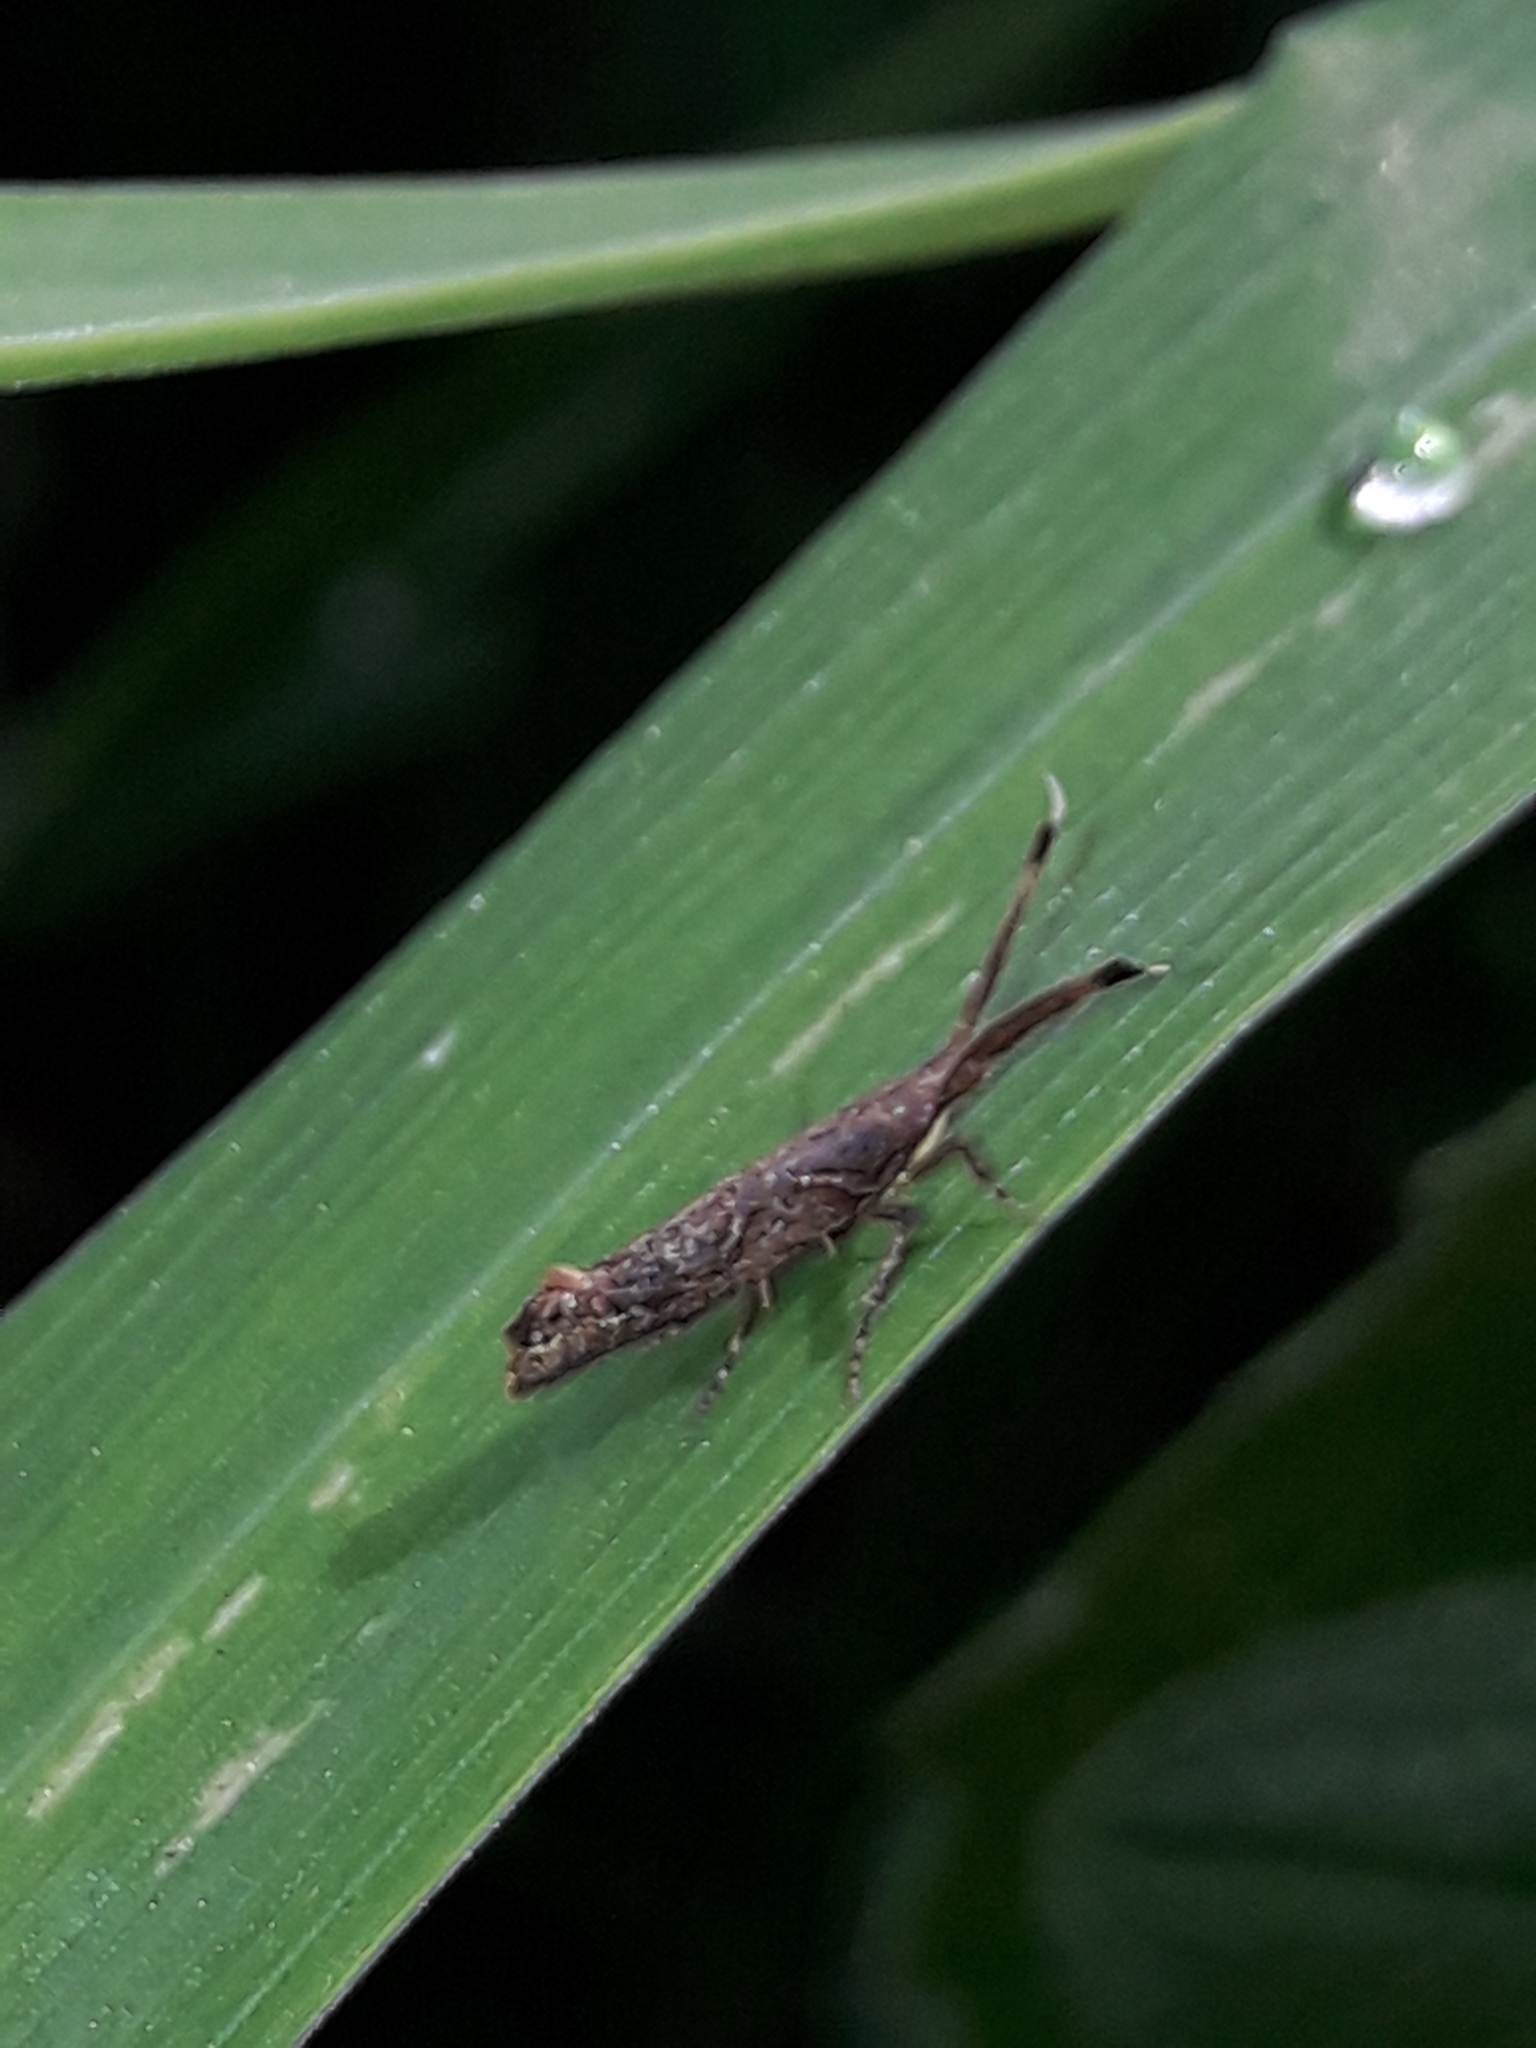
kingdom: Animalia
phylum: Arthropoda
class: Insecta
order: Lepidoptera
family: Plutellidae
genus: Protosynaema
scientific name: Protosynaema steropucha
